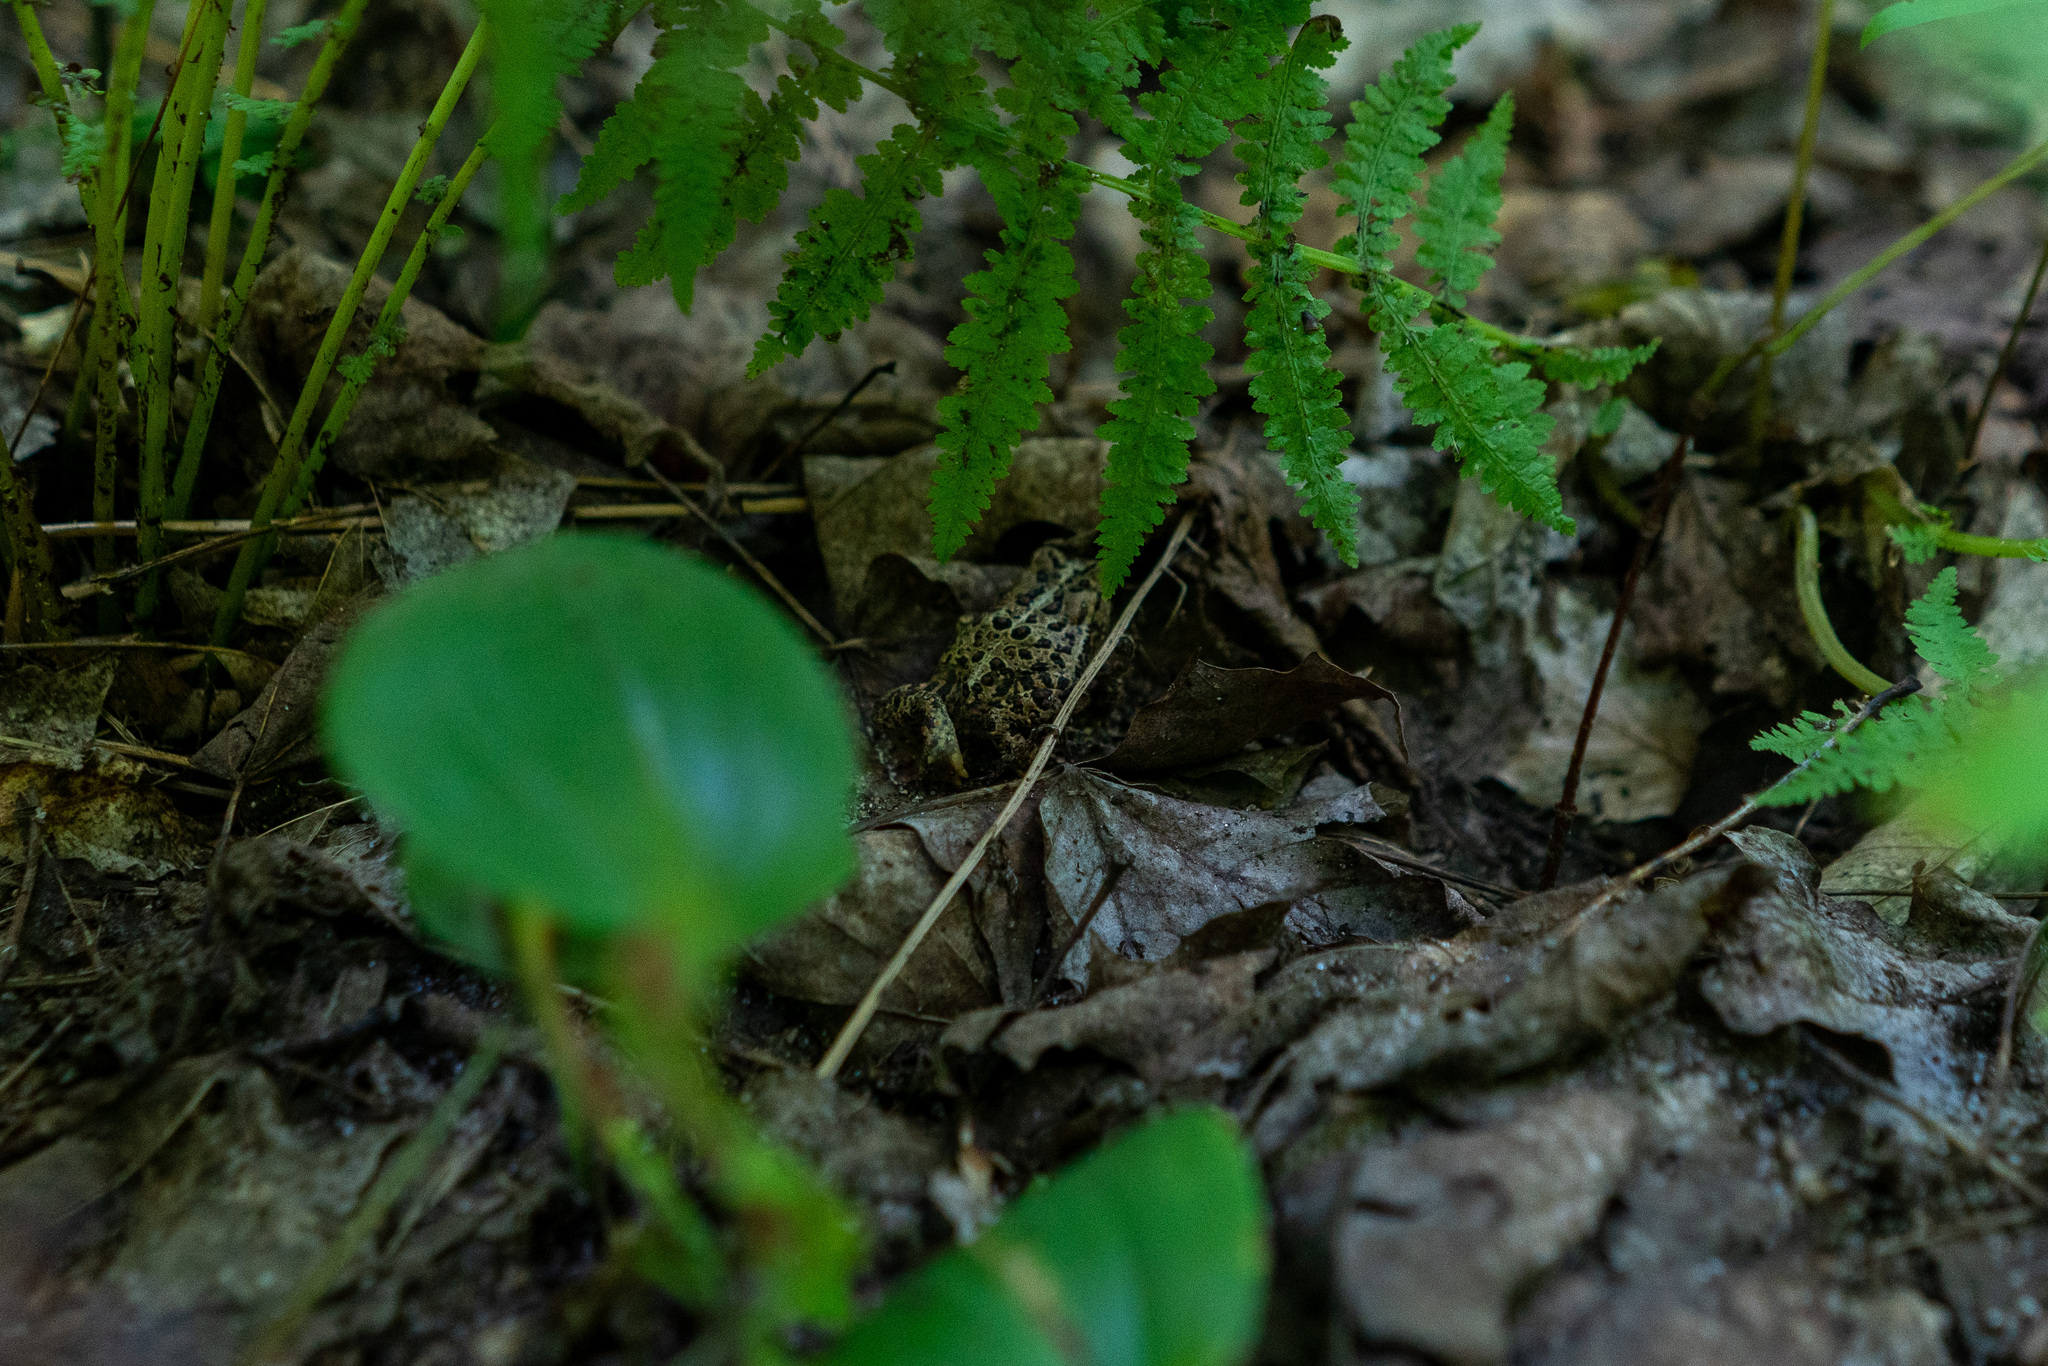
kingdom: Animalia
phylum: Chordata
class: Amphibia
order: Anura
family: Bufonidae
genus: Anaxyrus
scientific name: Anaxyrus americanus
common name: American toad
